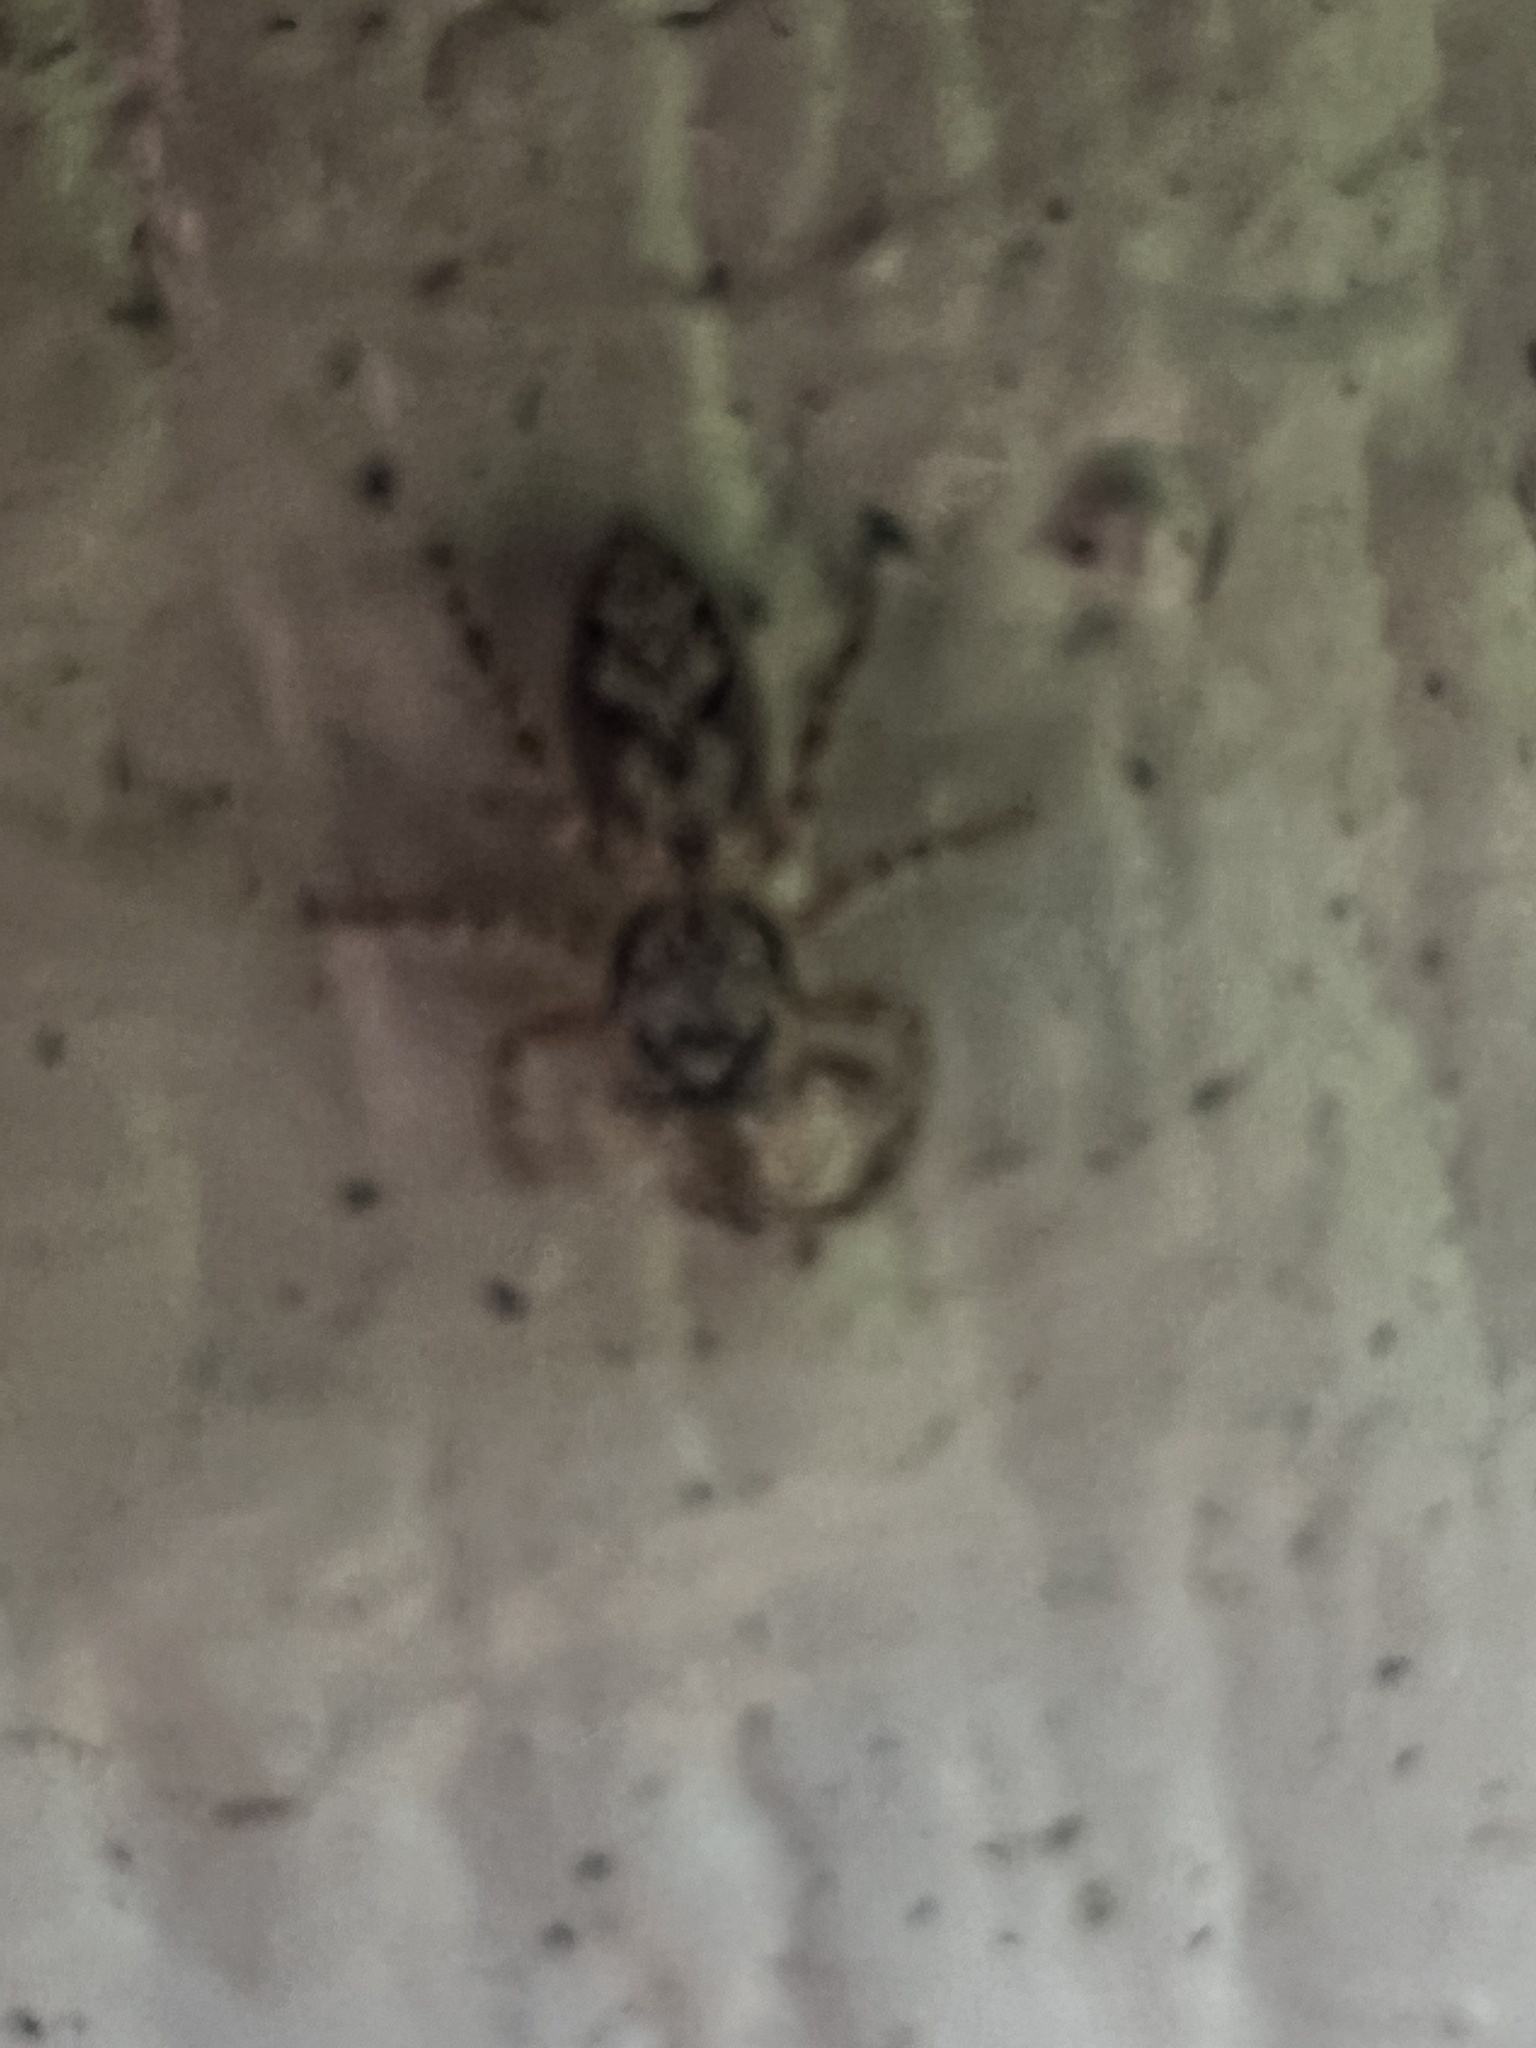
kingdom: Animalia
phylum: Arthropoda
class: Arachnida
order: Araneae
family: Salticidae
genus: Platycryptus
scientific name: Platycryptus undatus
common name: Tan jumping spider
